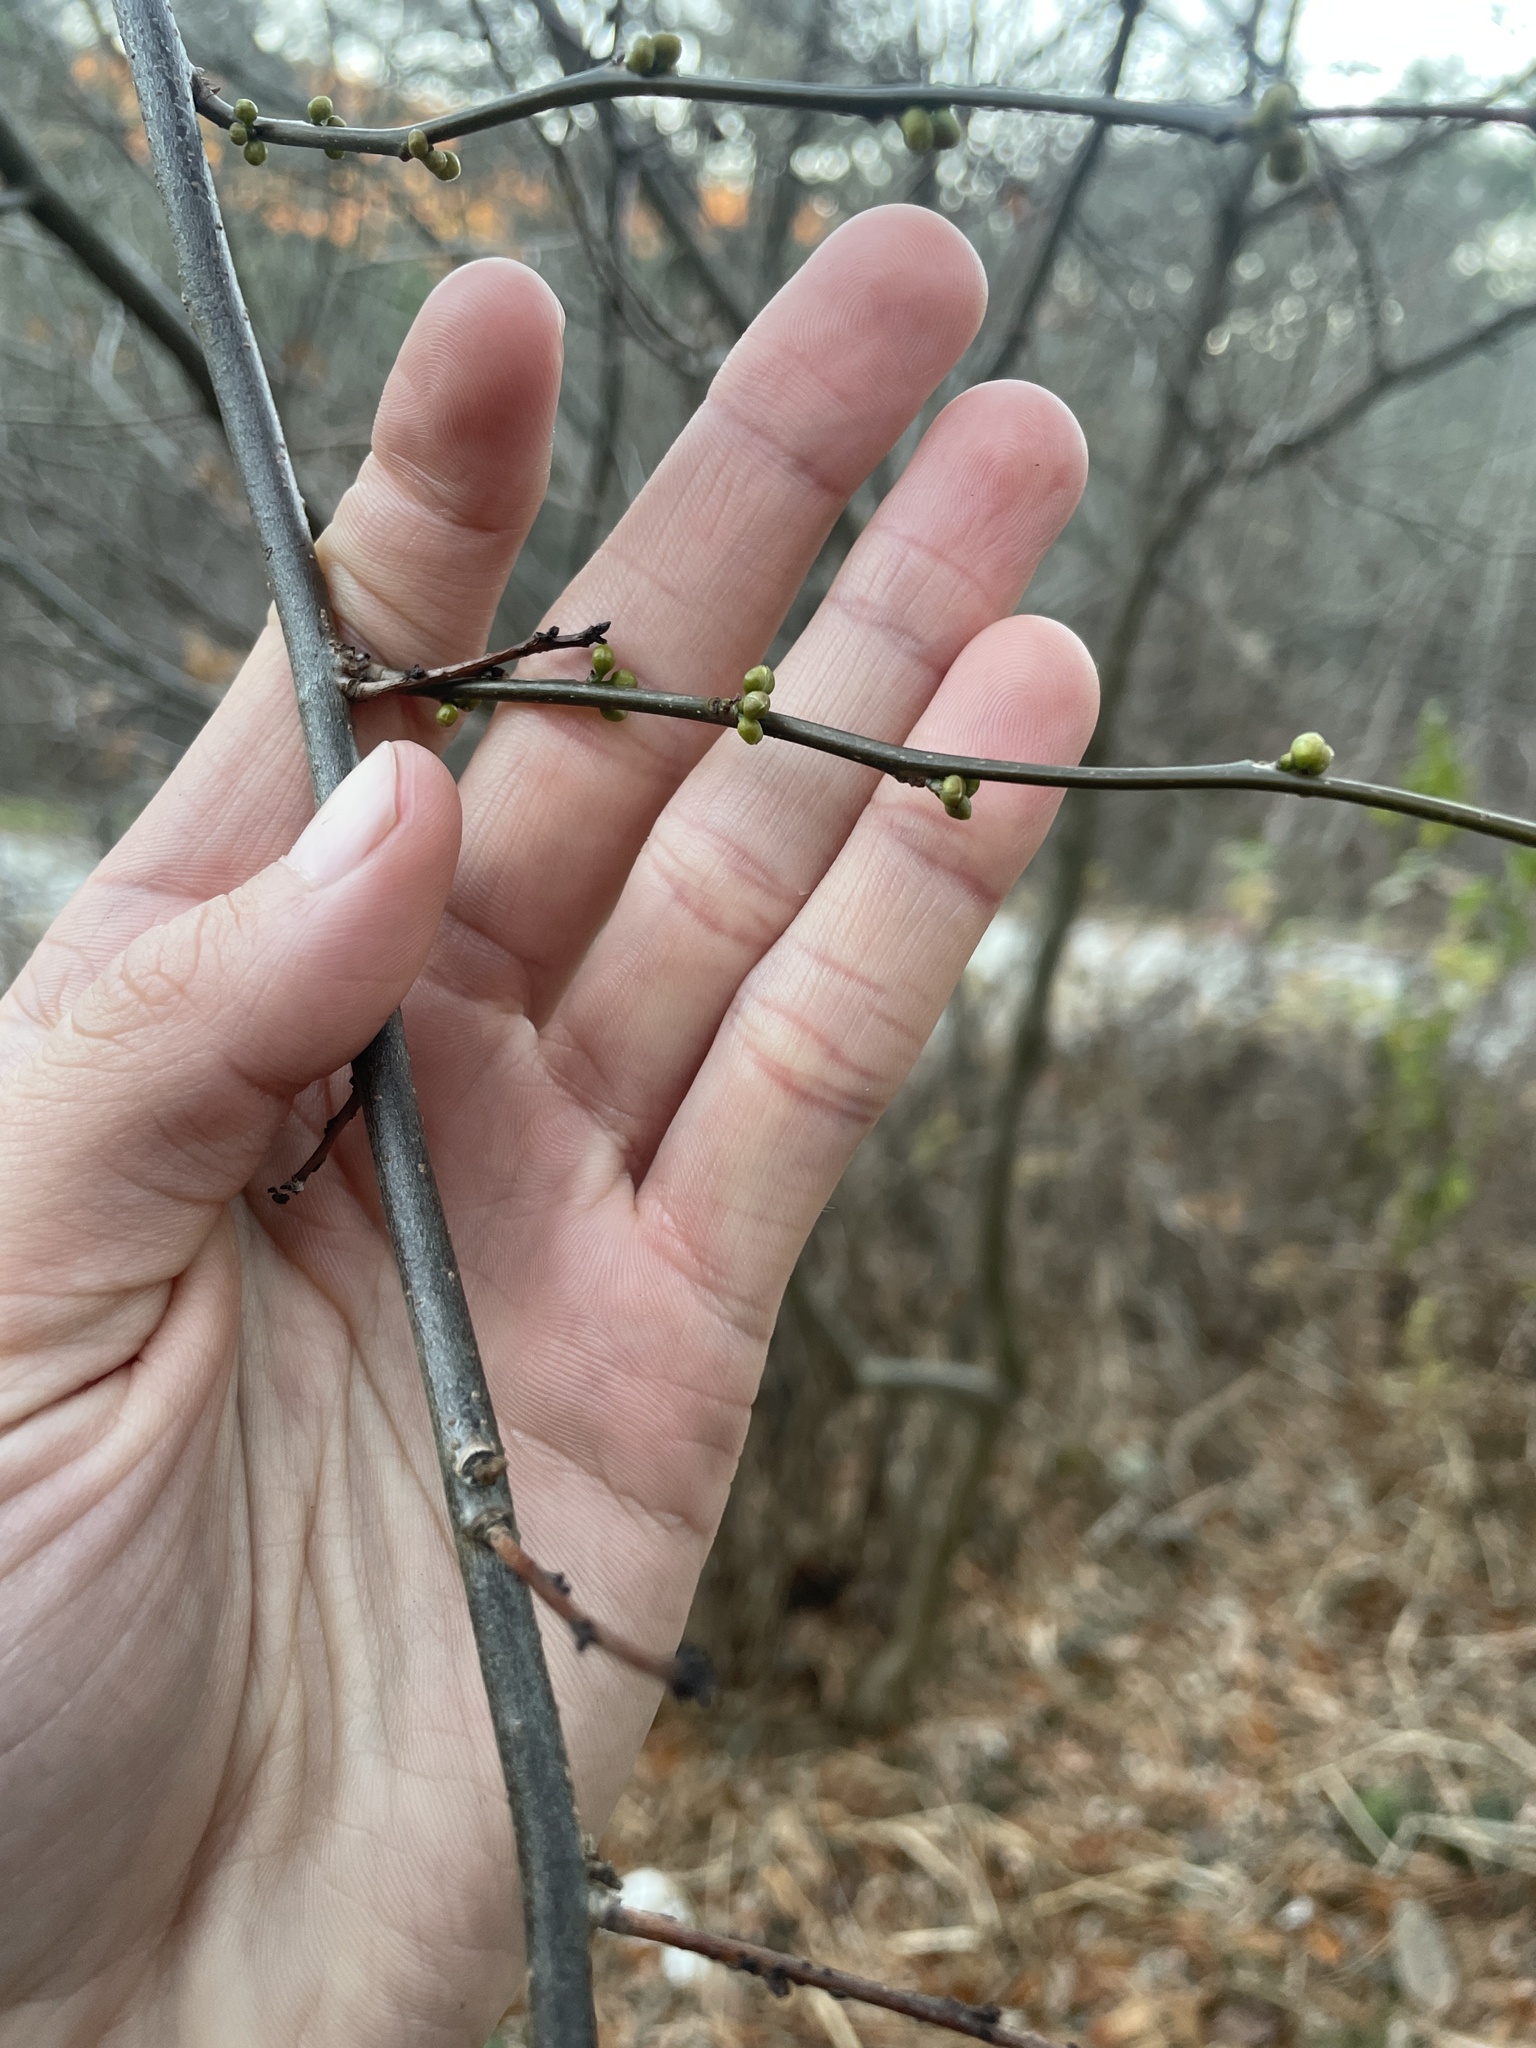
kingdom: Plantae
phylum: Tracheophyta
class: Magnoliopsida
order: Laurales
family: Lauraceae
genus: Lindera
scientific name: Lindera benzoin
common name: Spicebush
